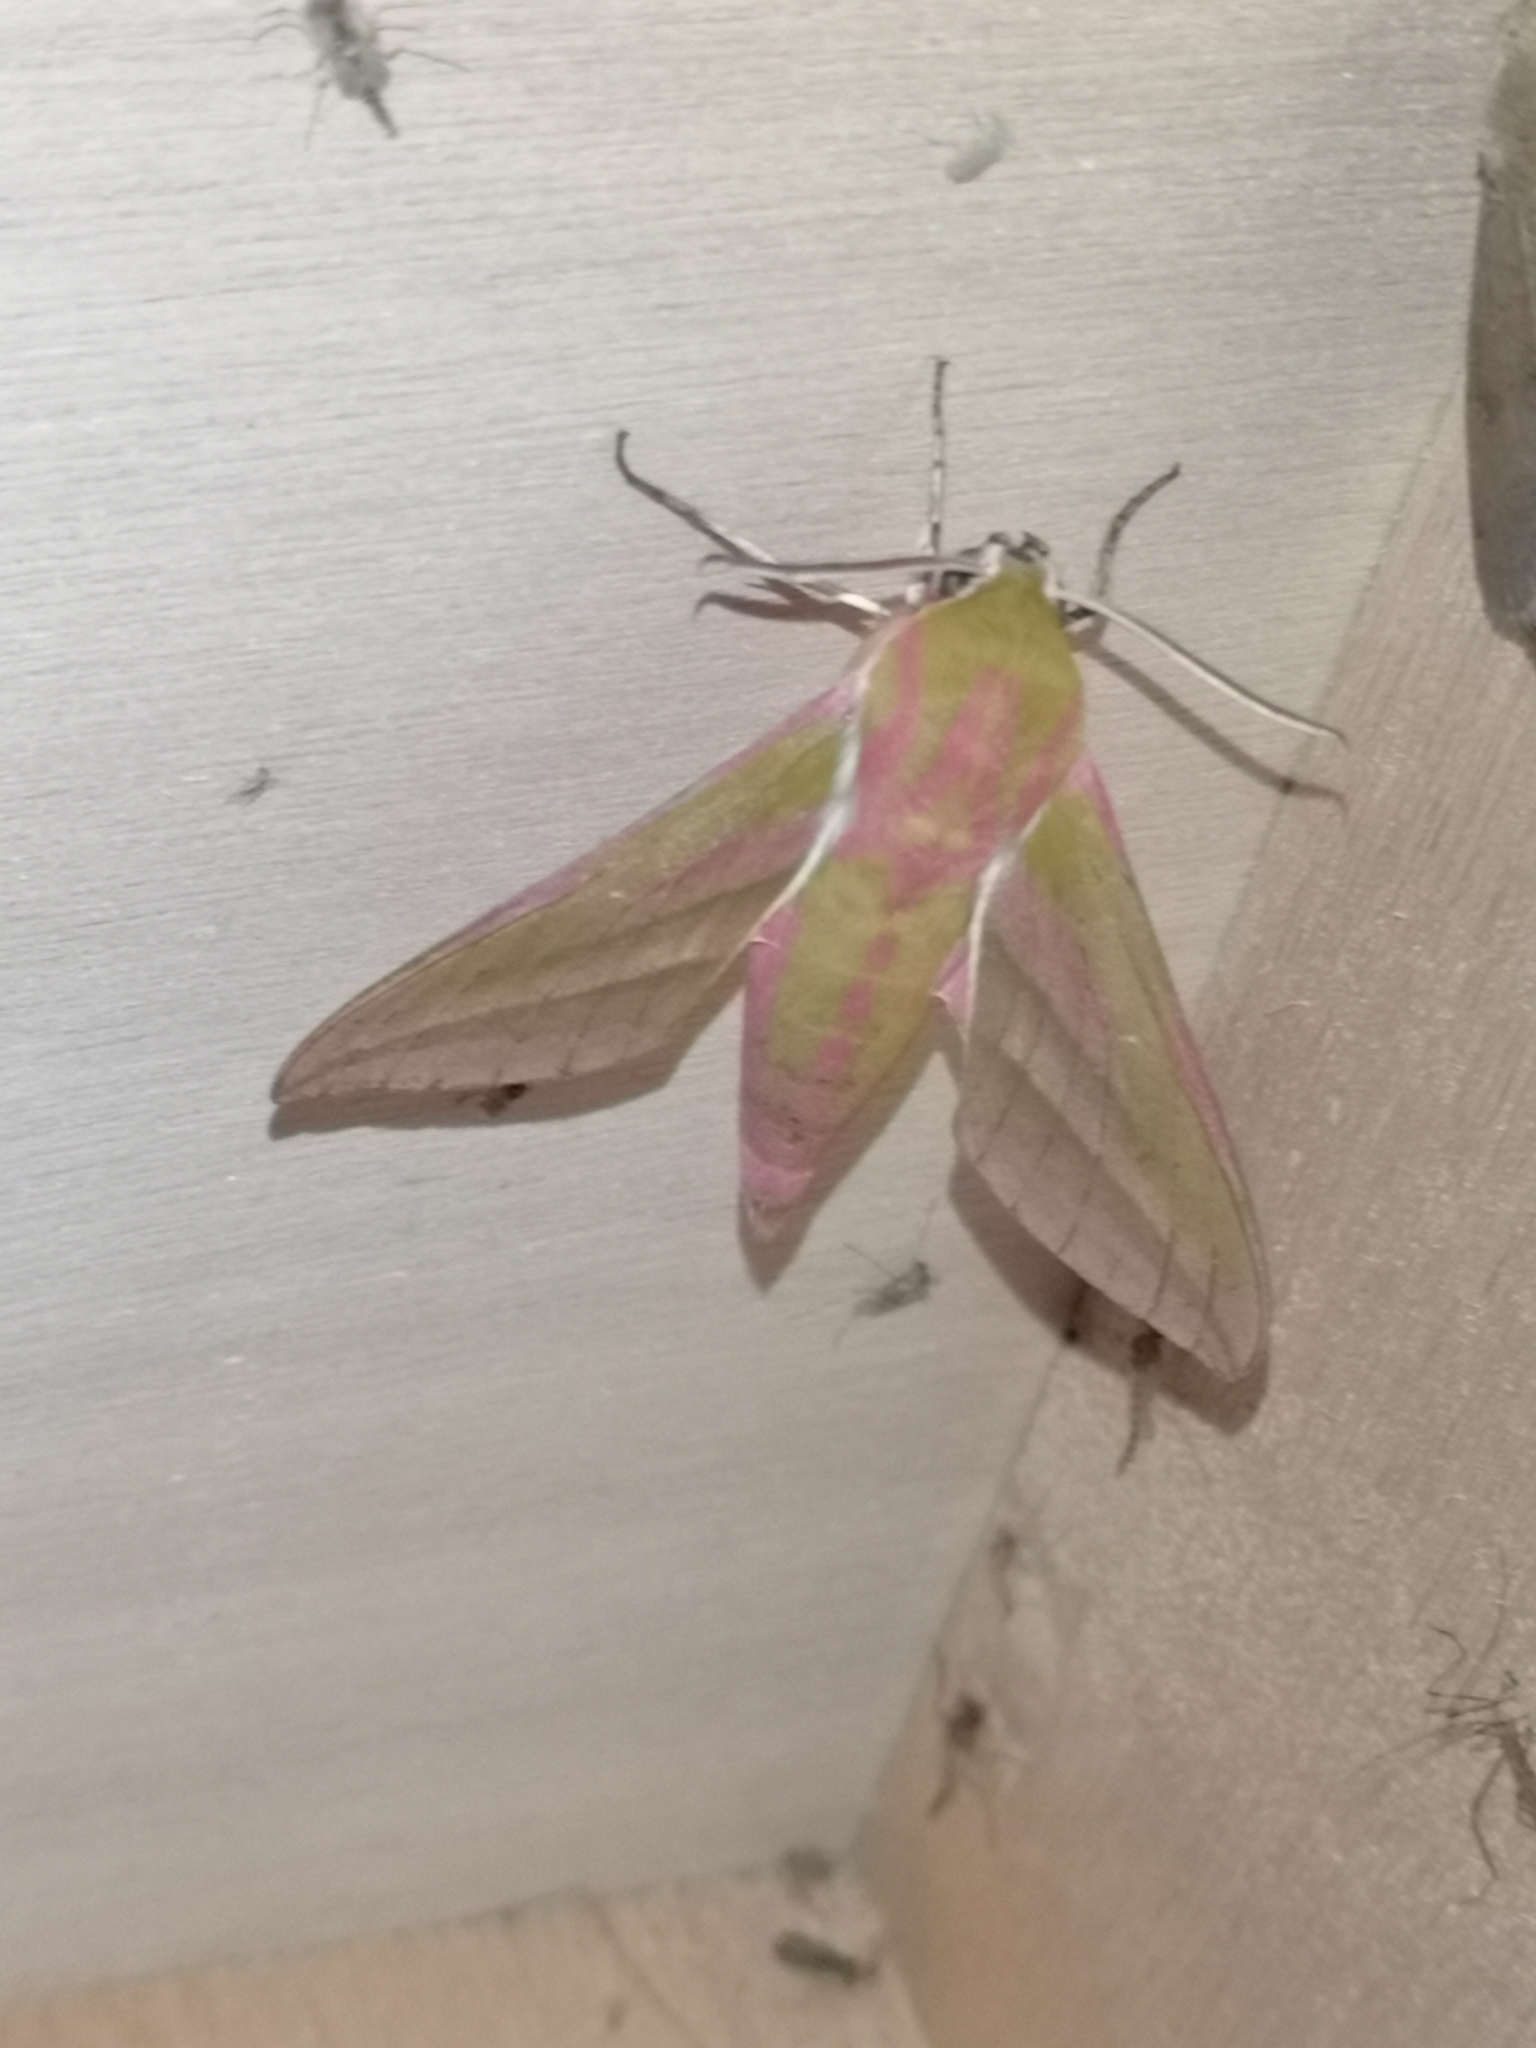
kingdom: Animalia
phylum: Arthropoda
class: Insecta
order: Lepidoptera
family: Sphingidae
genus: Deilephila
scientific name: Deilephila elpenor
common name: Elephant hawk-moth
